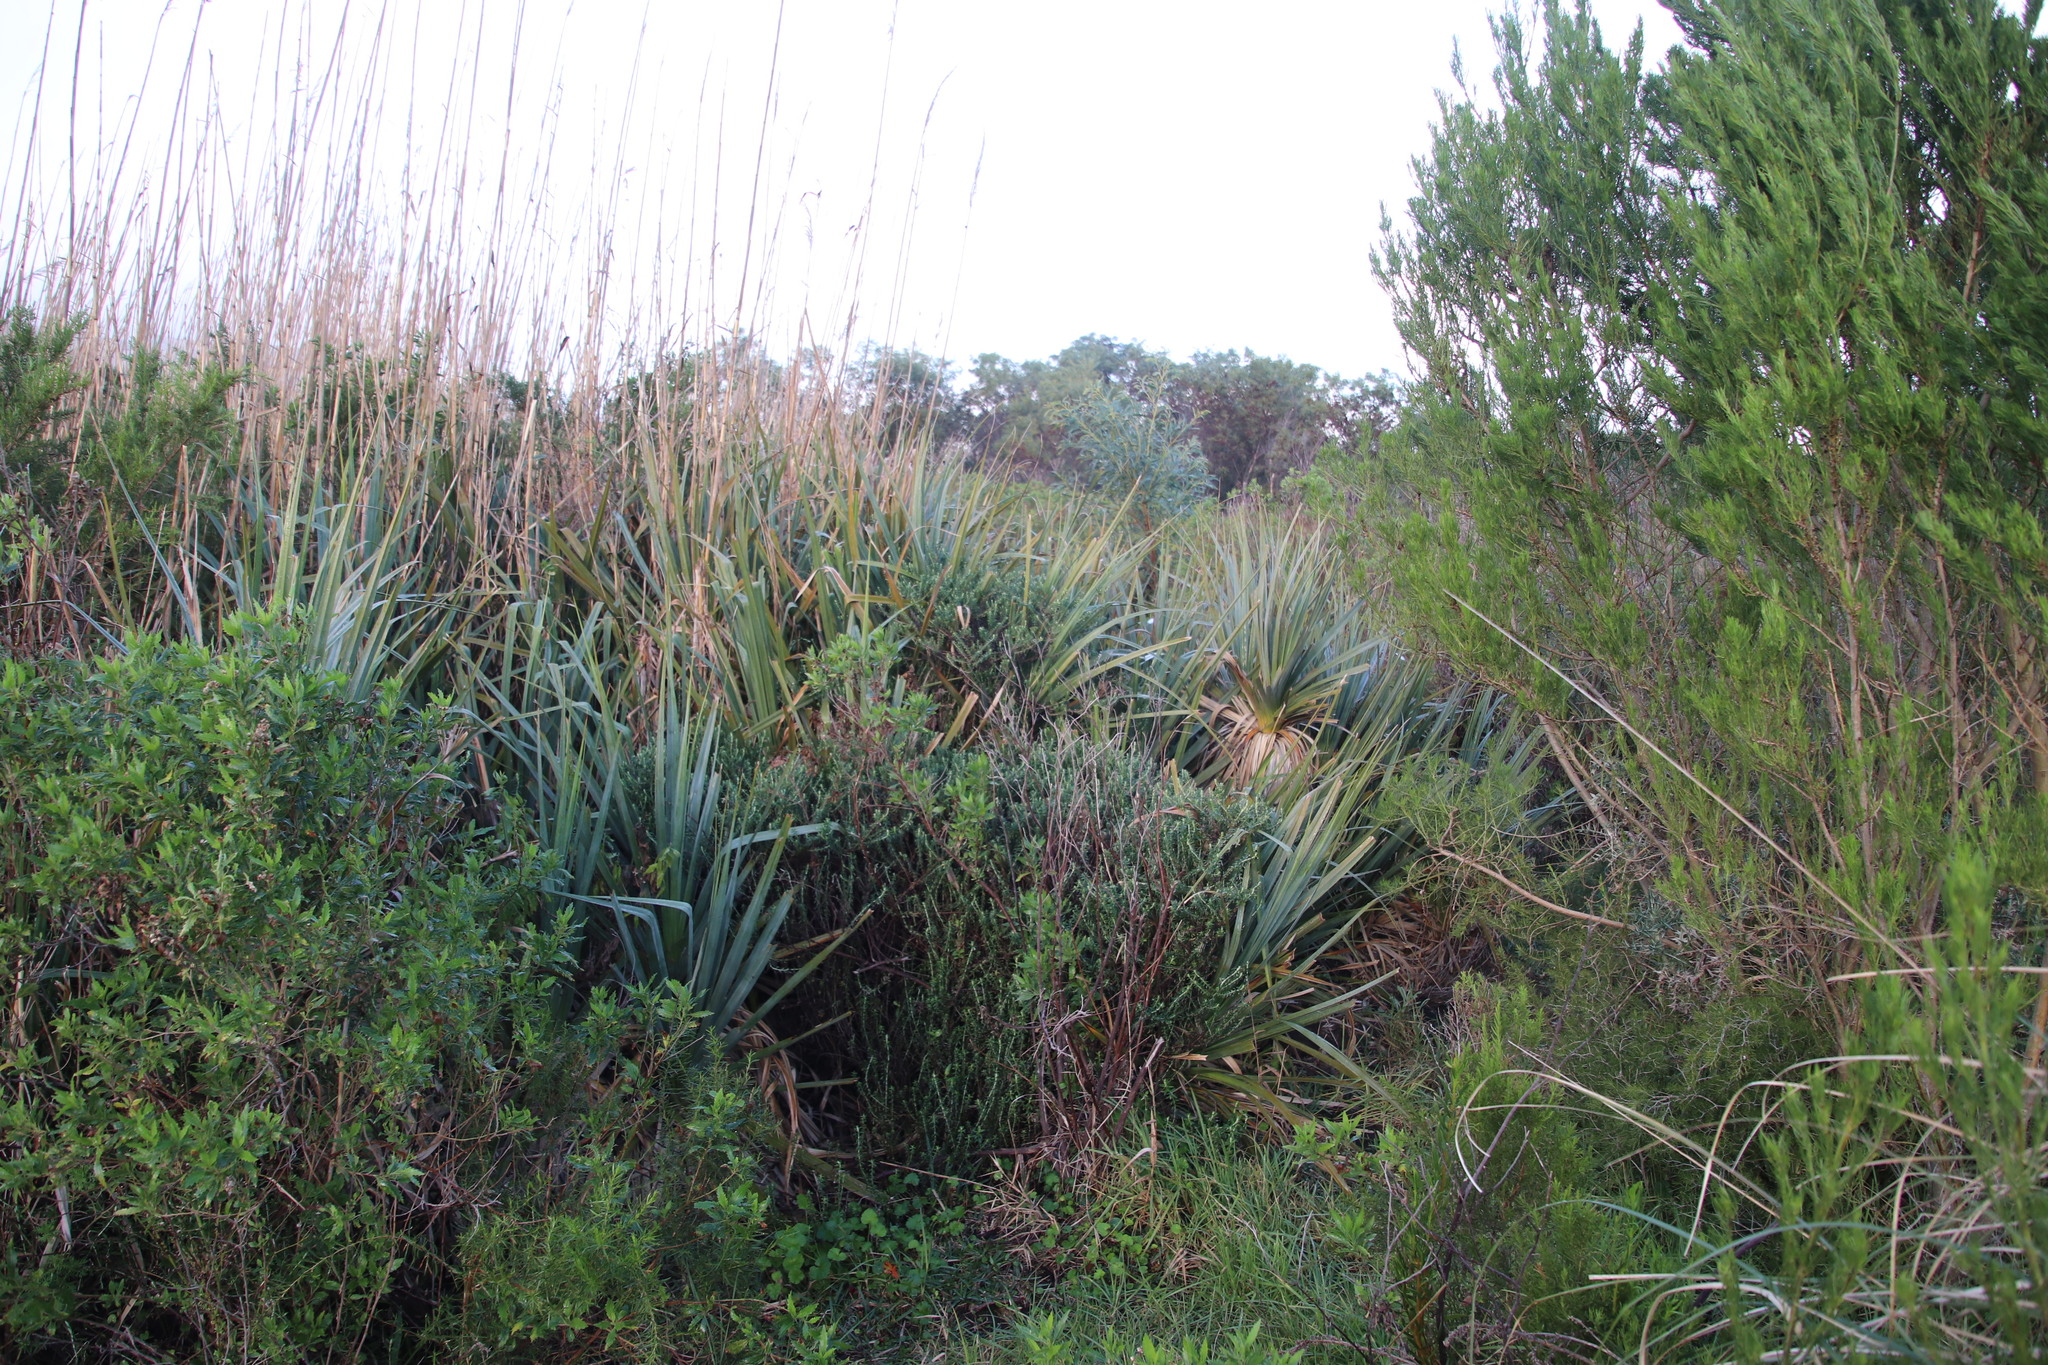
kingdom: Plantae
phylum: Tracheophyta
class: Liliopsida
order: Poales
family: Thurniaceae
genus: Prionium
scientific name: Prionium serratum
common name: Palmiet
